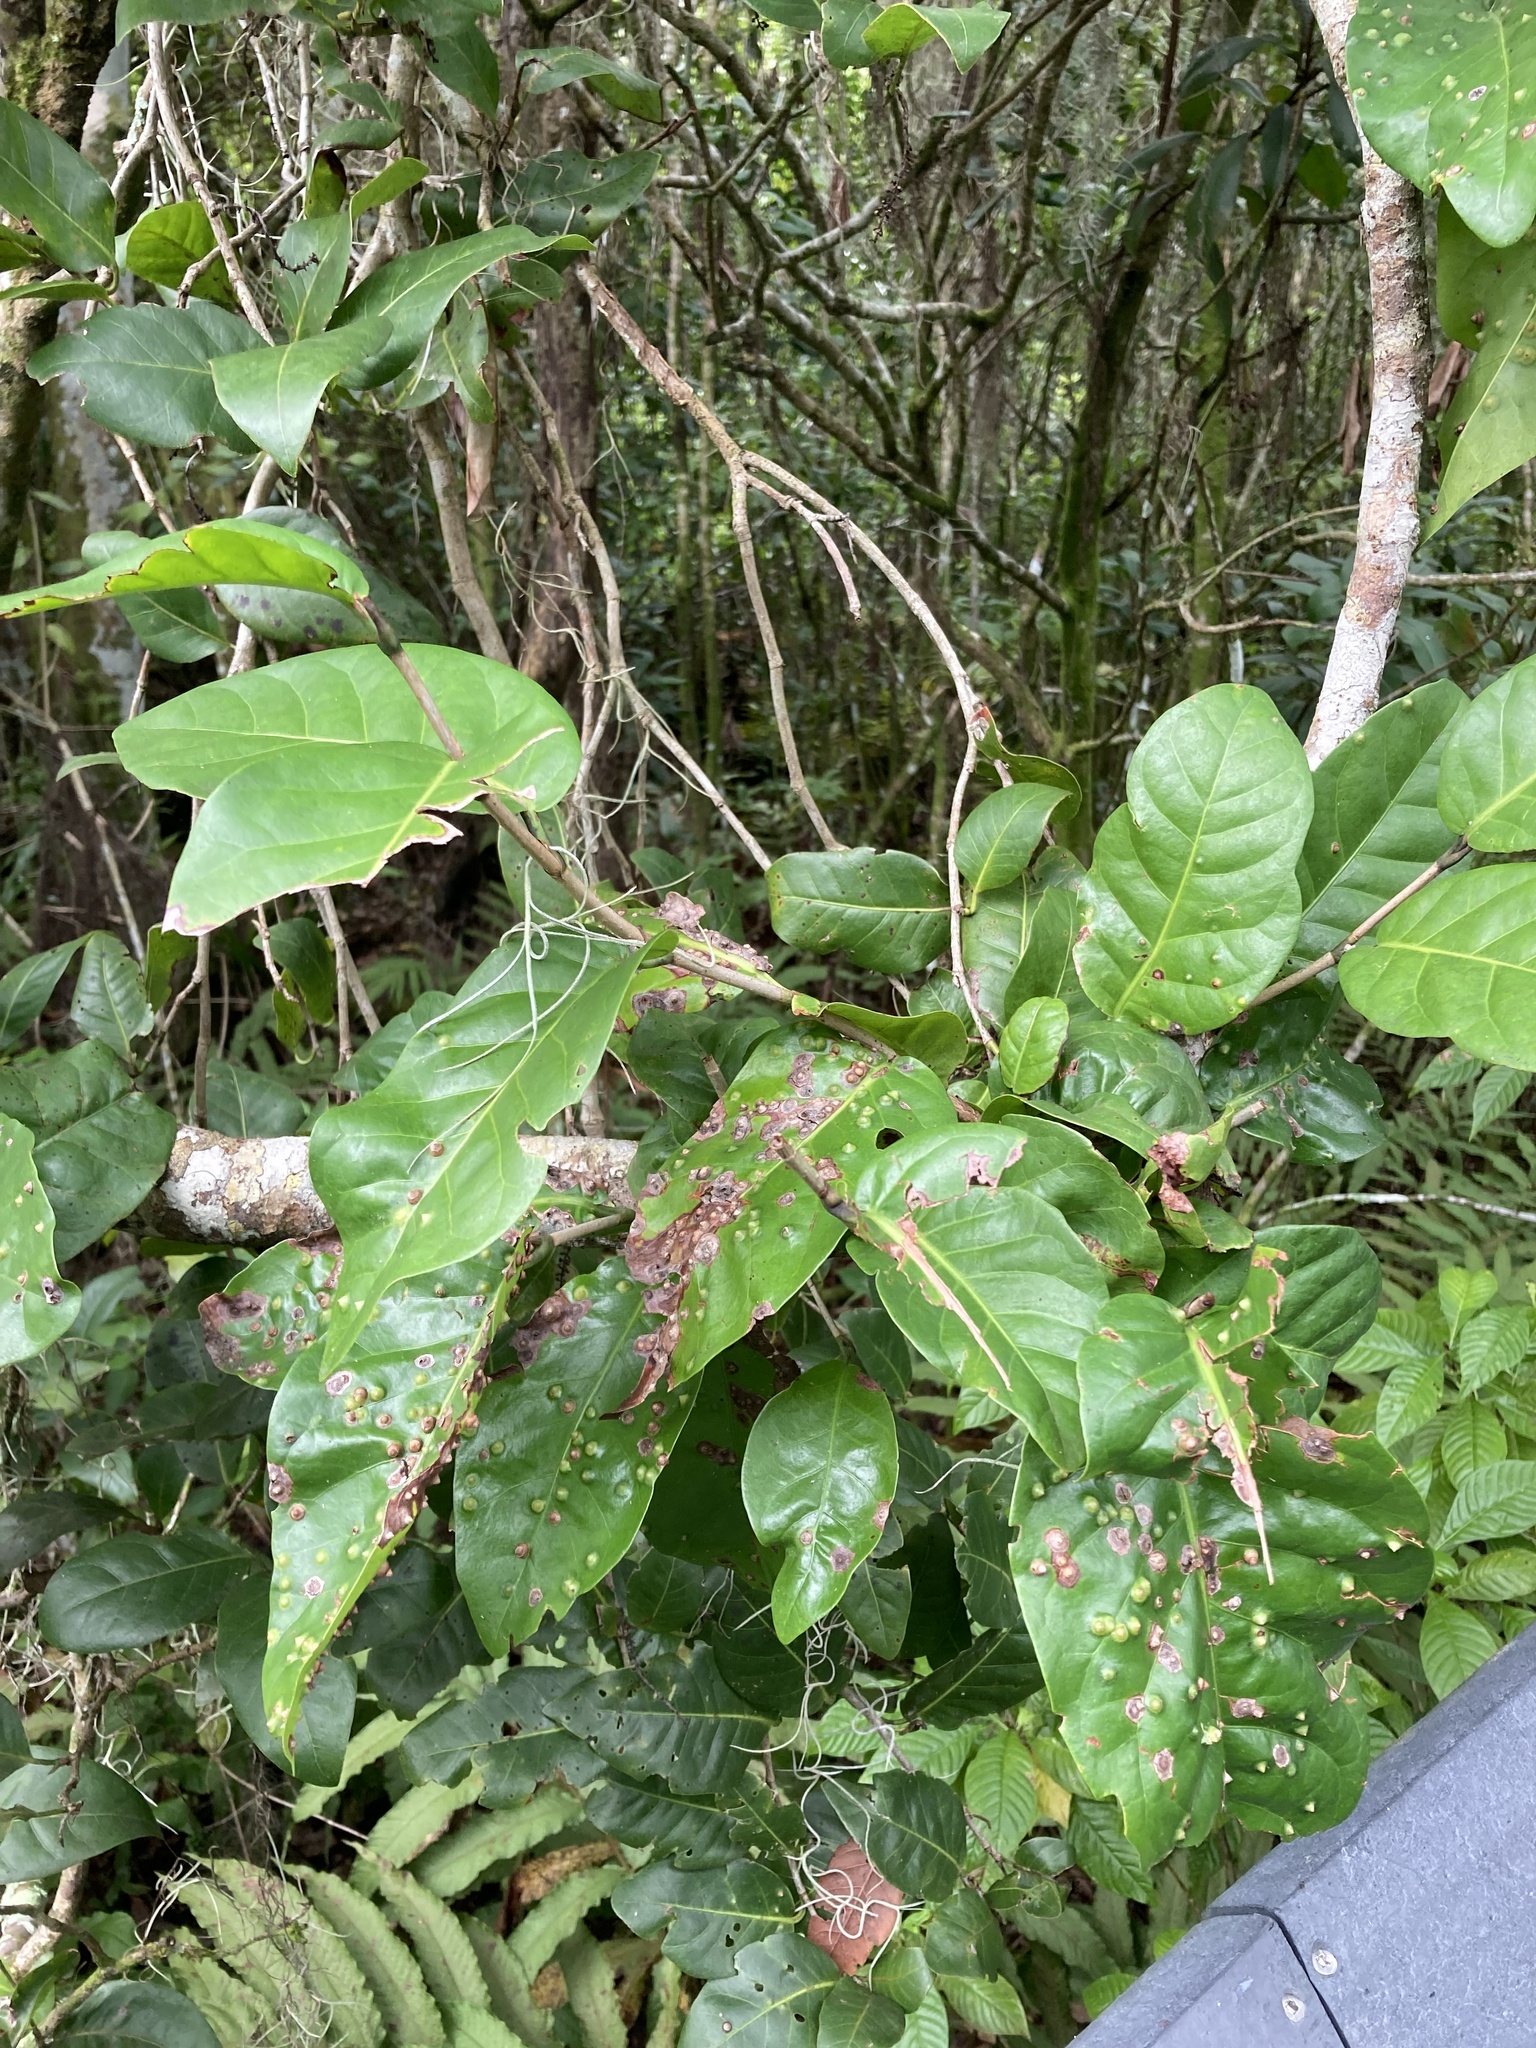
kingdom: Plantae
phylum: Tracheophyta
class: Magnoliopsida
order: Caryophyllales
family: Polygonaceae
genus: Coccoloba
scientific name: Coccoloba diversifolia
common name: Pigeon-plum
